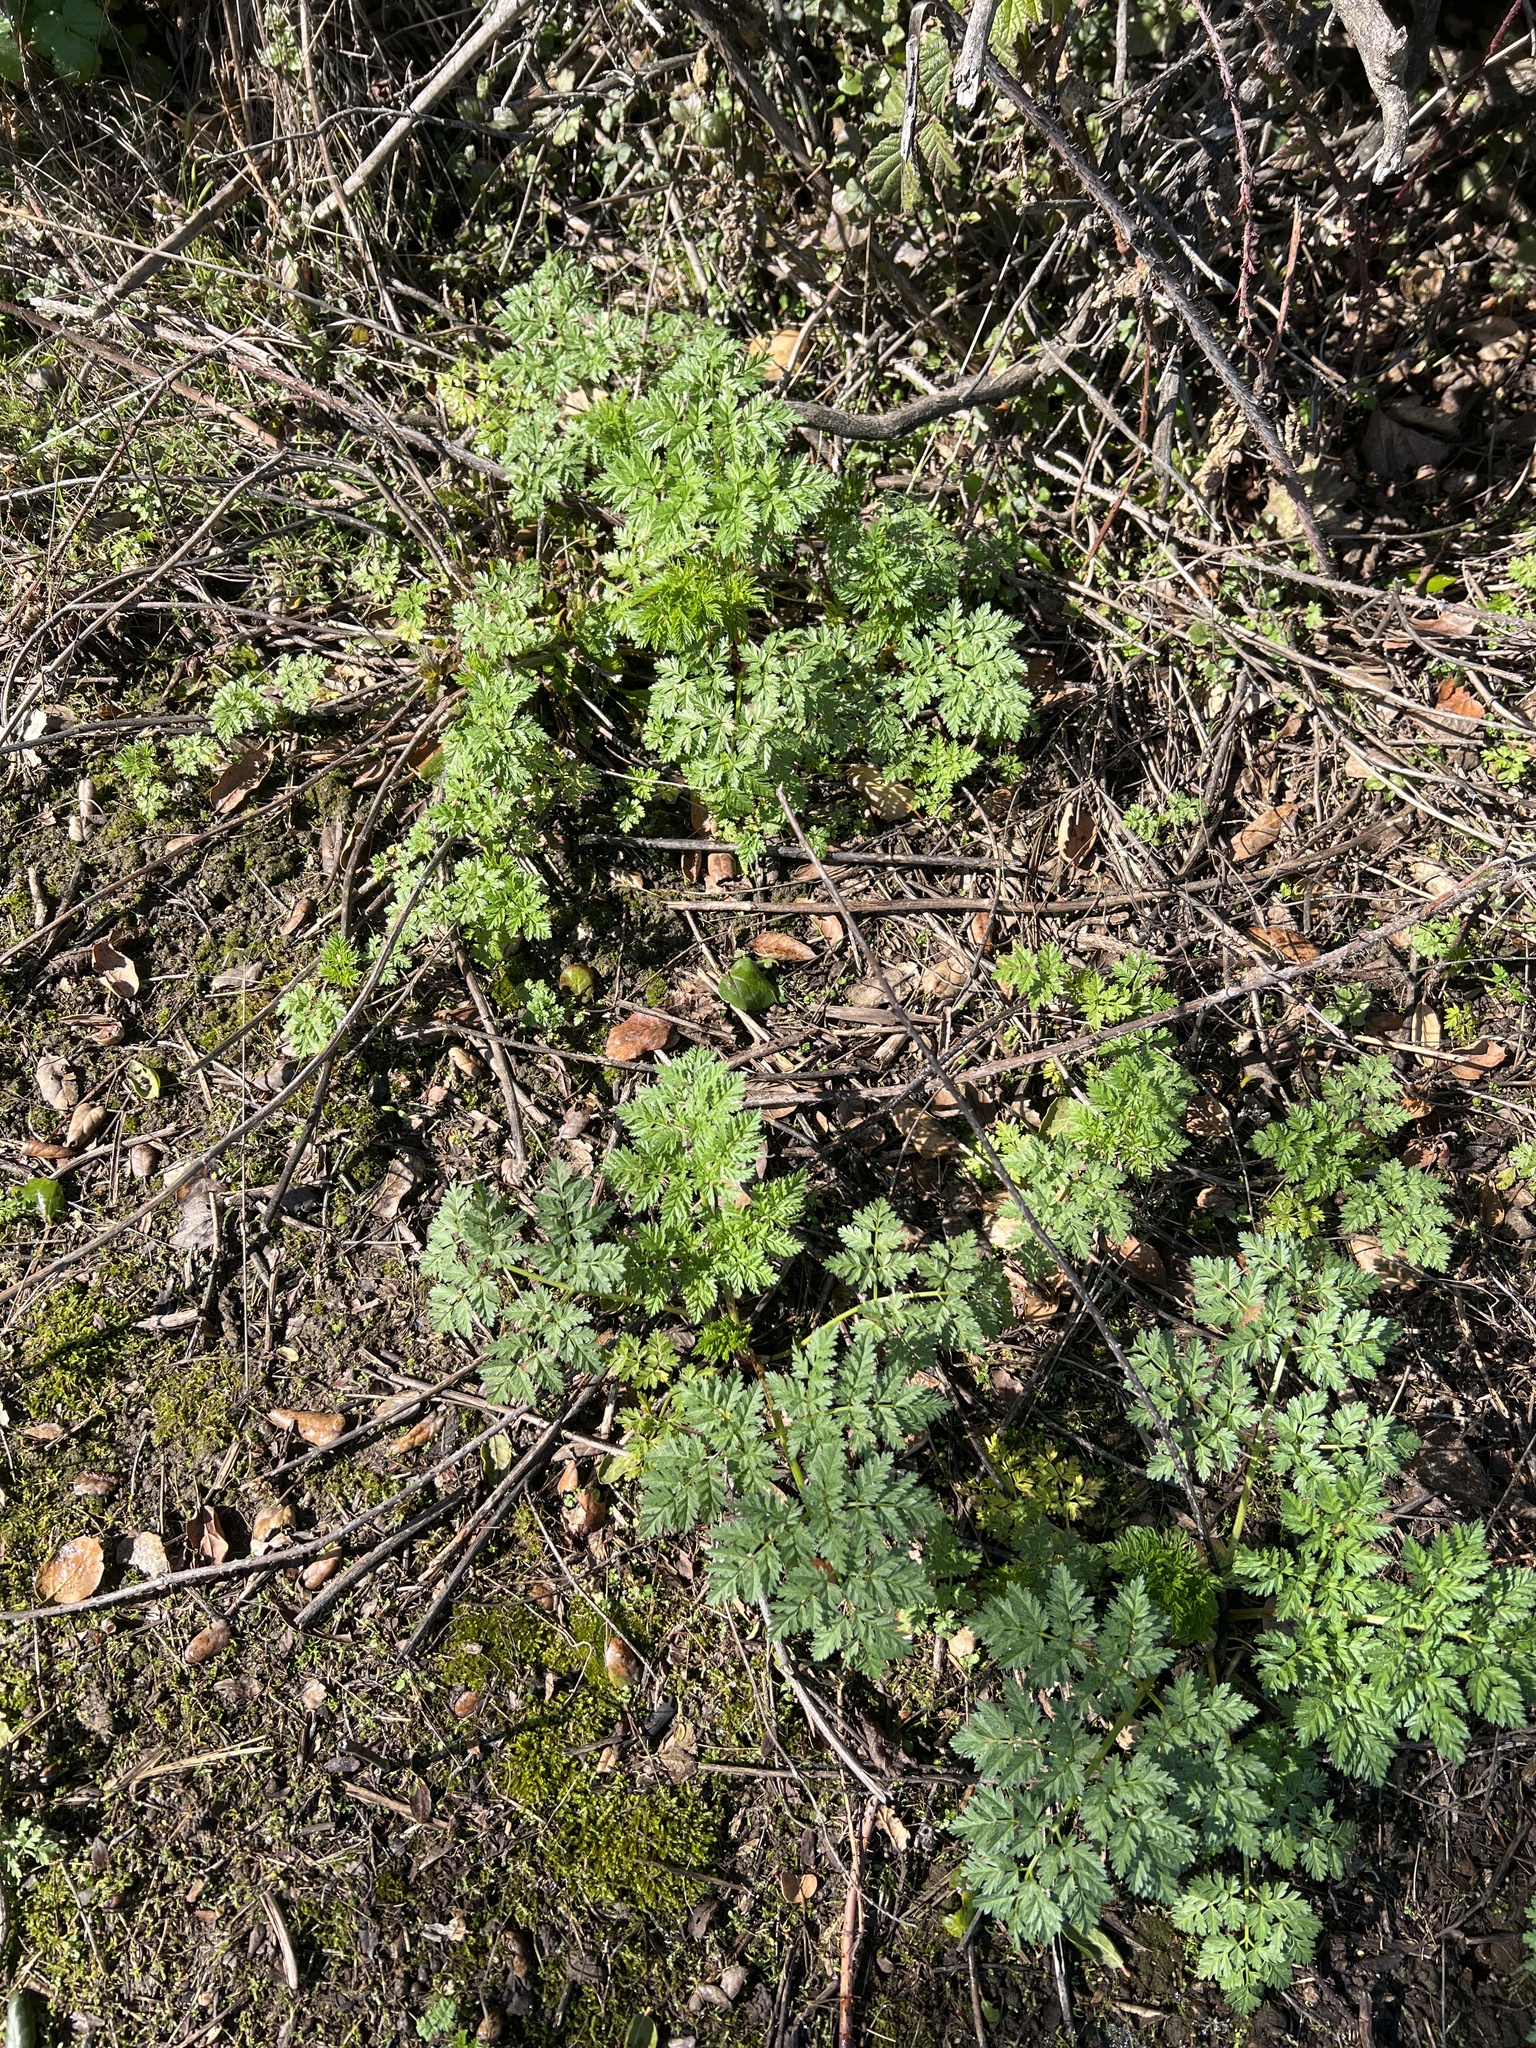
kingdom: Plantae
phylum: Tracheophyta
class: Magnoliopsida
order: Apiales
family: Apiaceae
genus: Conium
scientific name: Conium maculatum
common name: Hemlock
